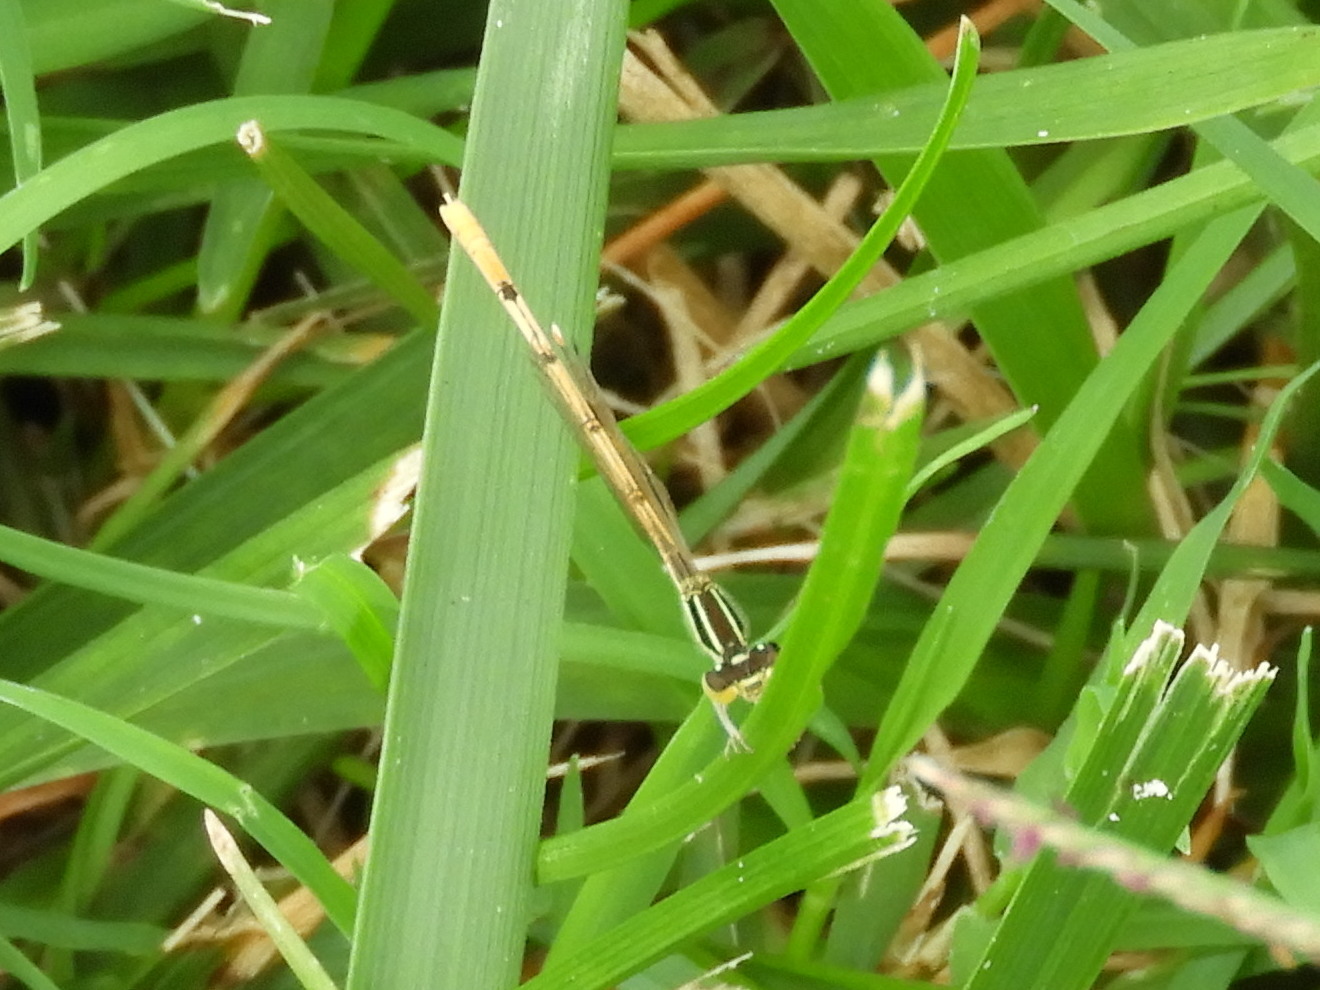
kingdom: Animalia
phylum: Arthropoda
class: Insecta
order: Odonata
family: Coenagrionidae
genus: Ischnura
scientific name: Ischnura hastata
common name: Citrine forktail
